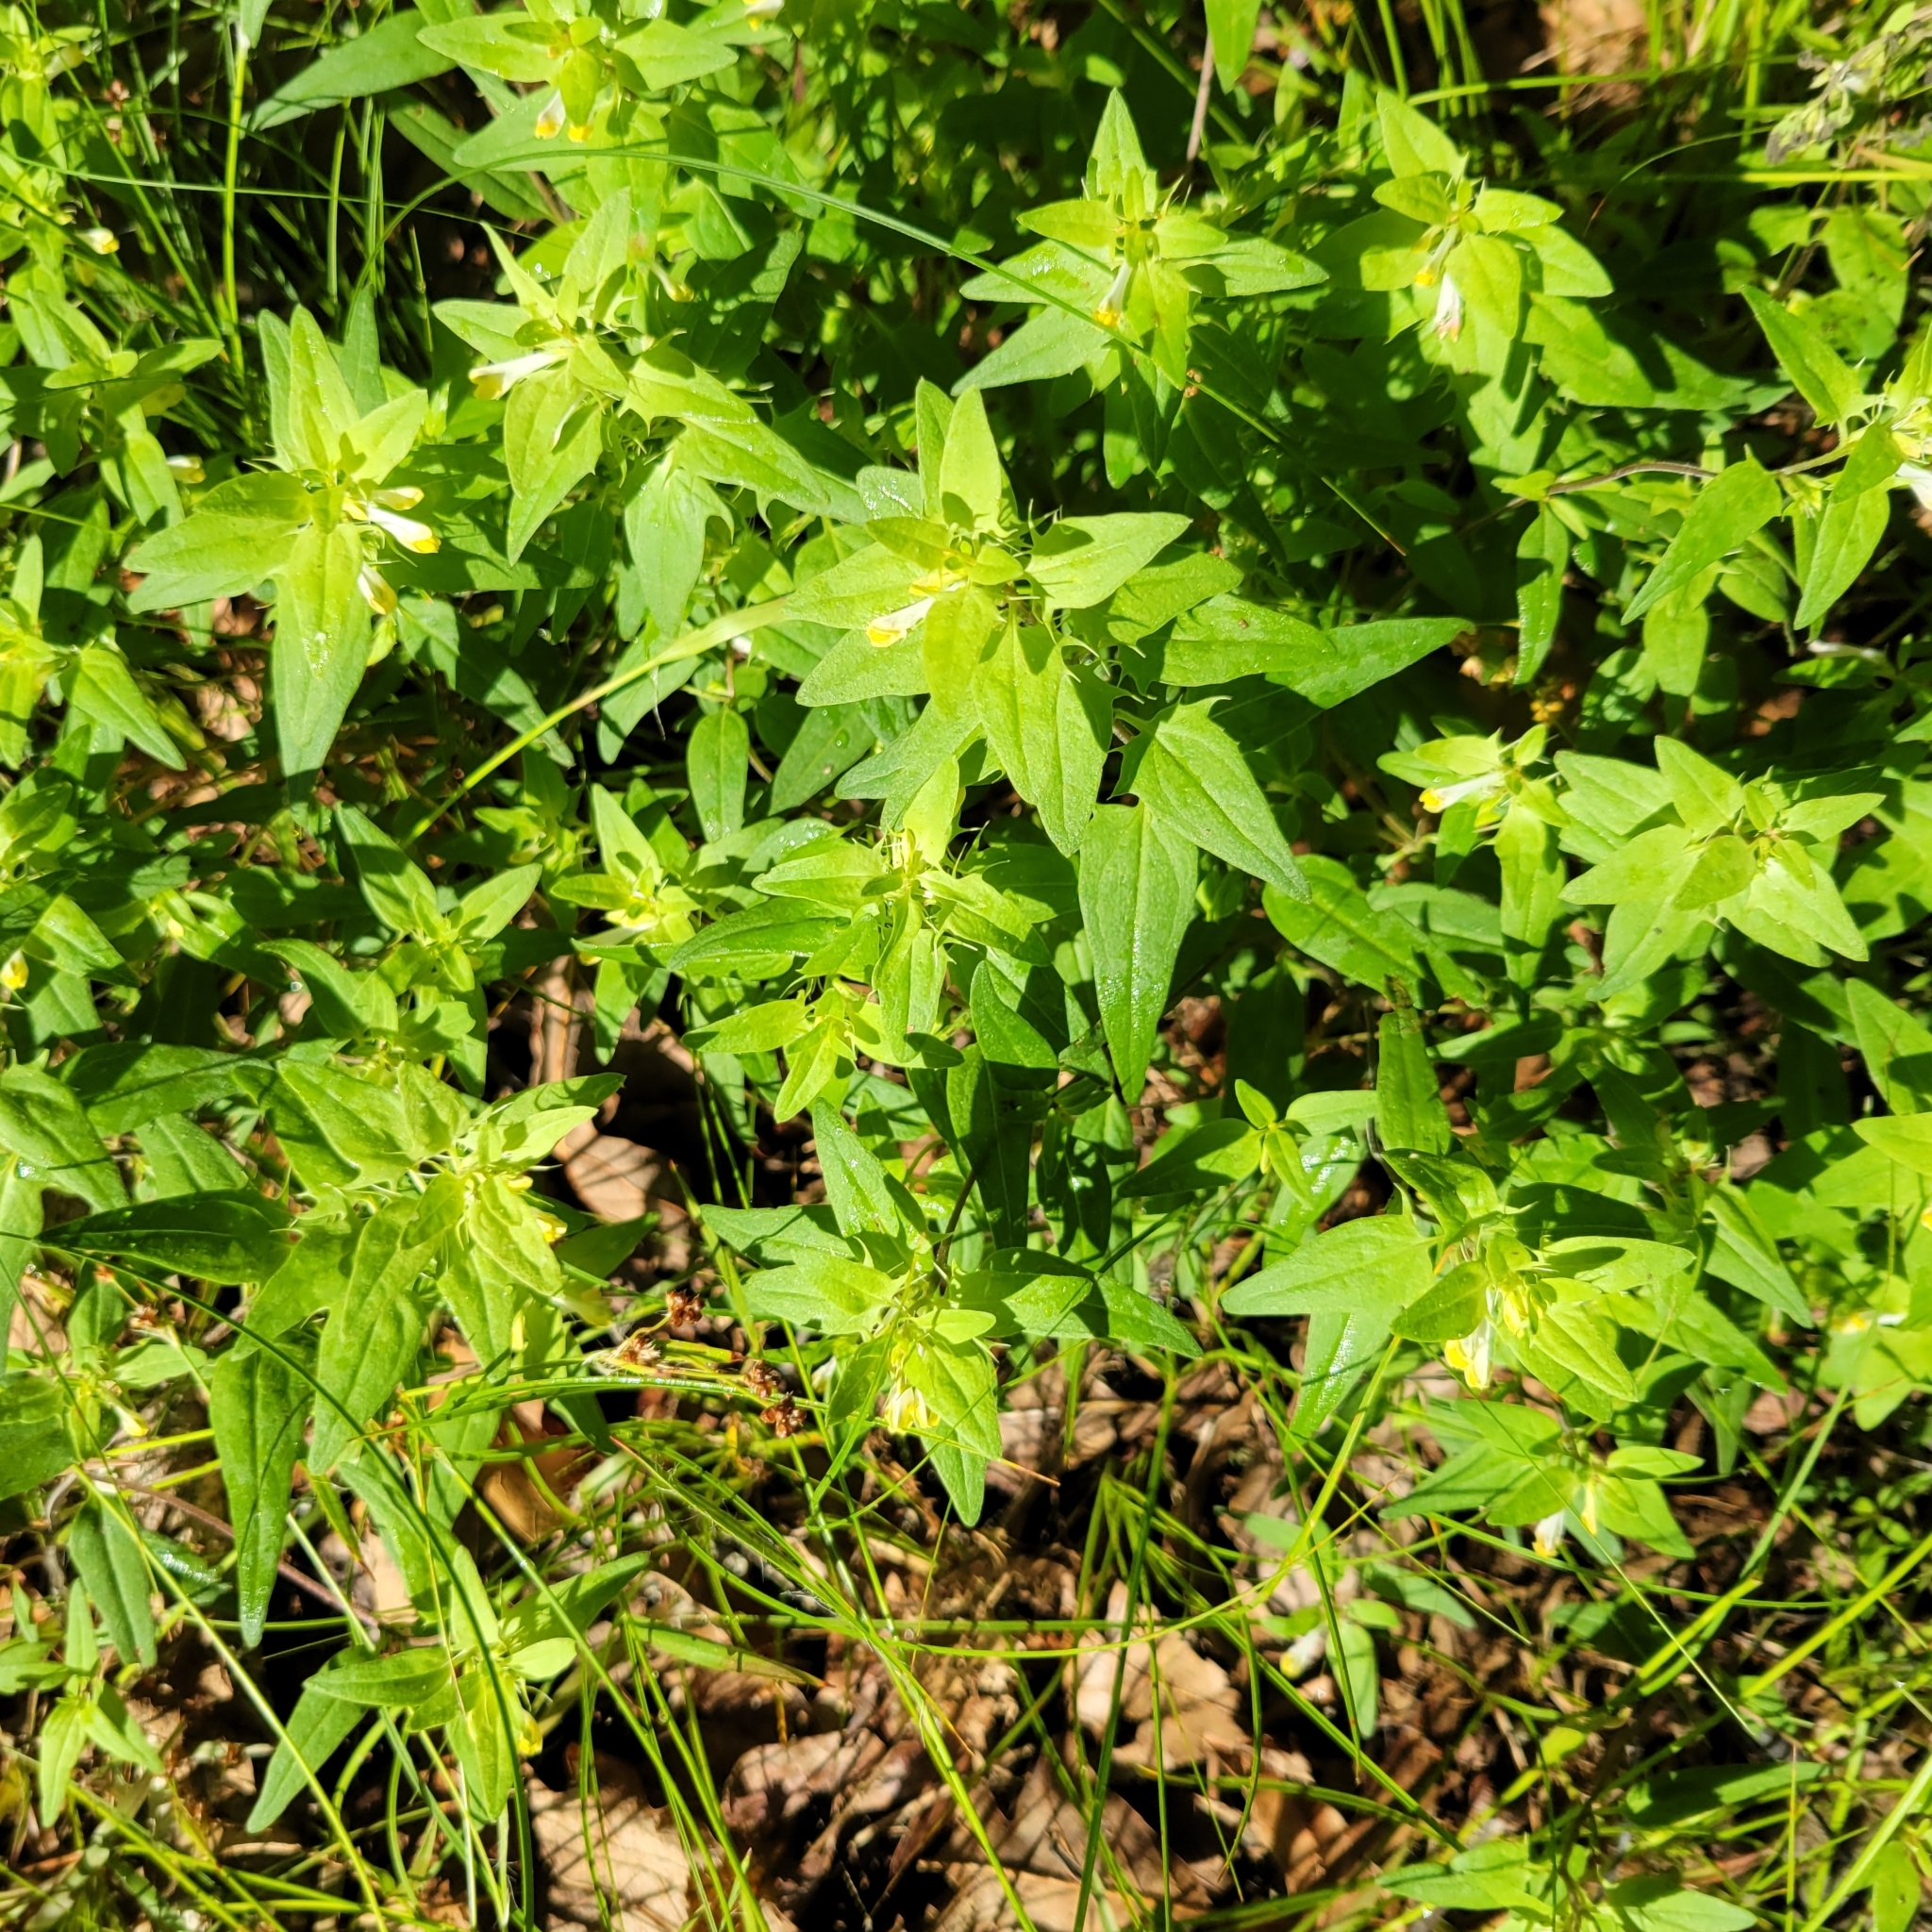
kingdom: Plantae
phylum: Tracheophyta
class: Magnoliopsida
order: Lamiales
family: Orobanchaceae
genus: Melampyrum
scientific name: Melampyrum lineare
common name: American cow-wheat
